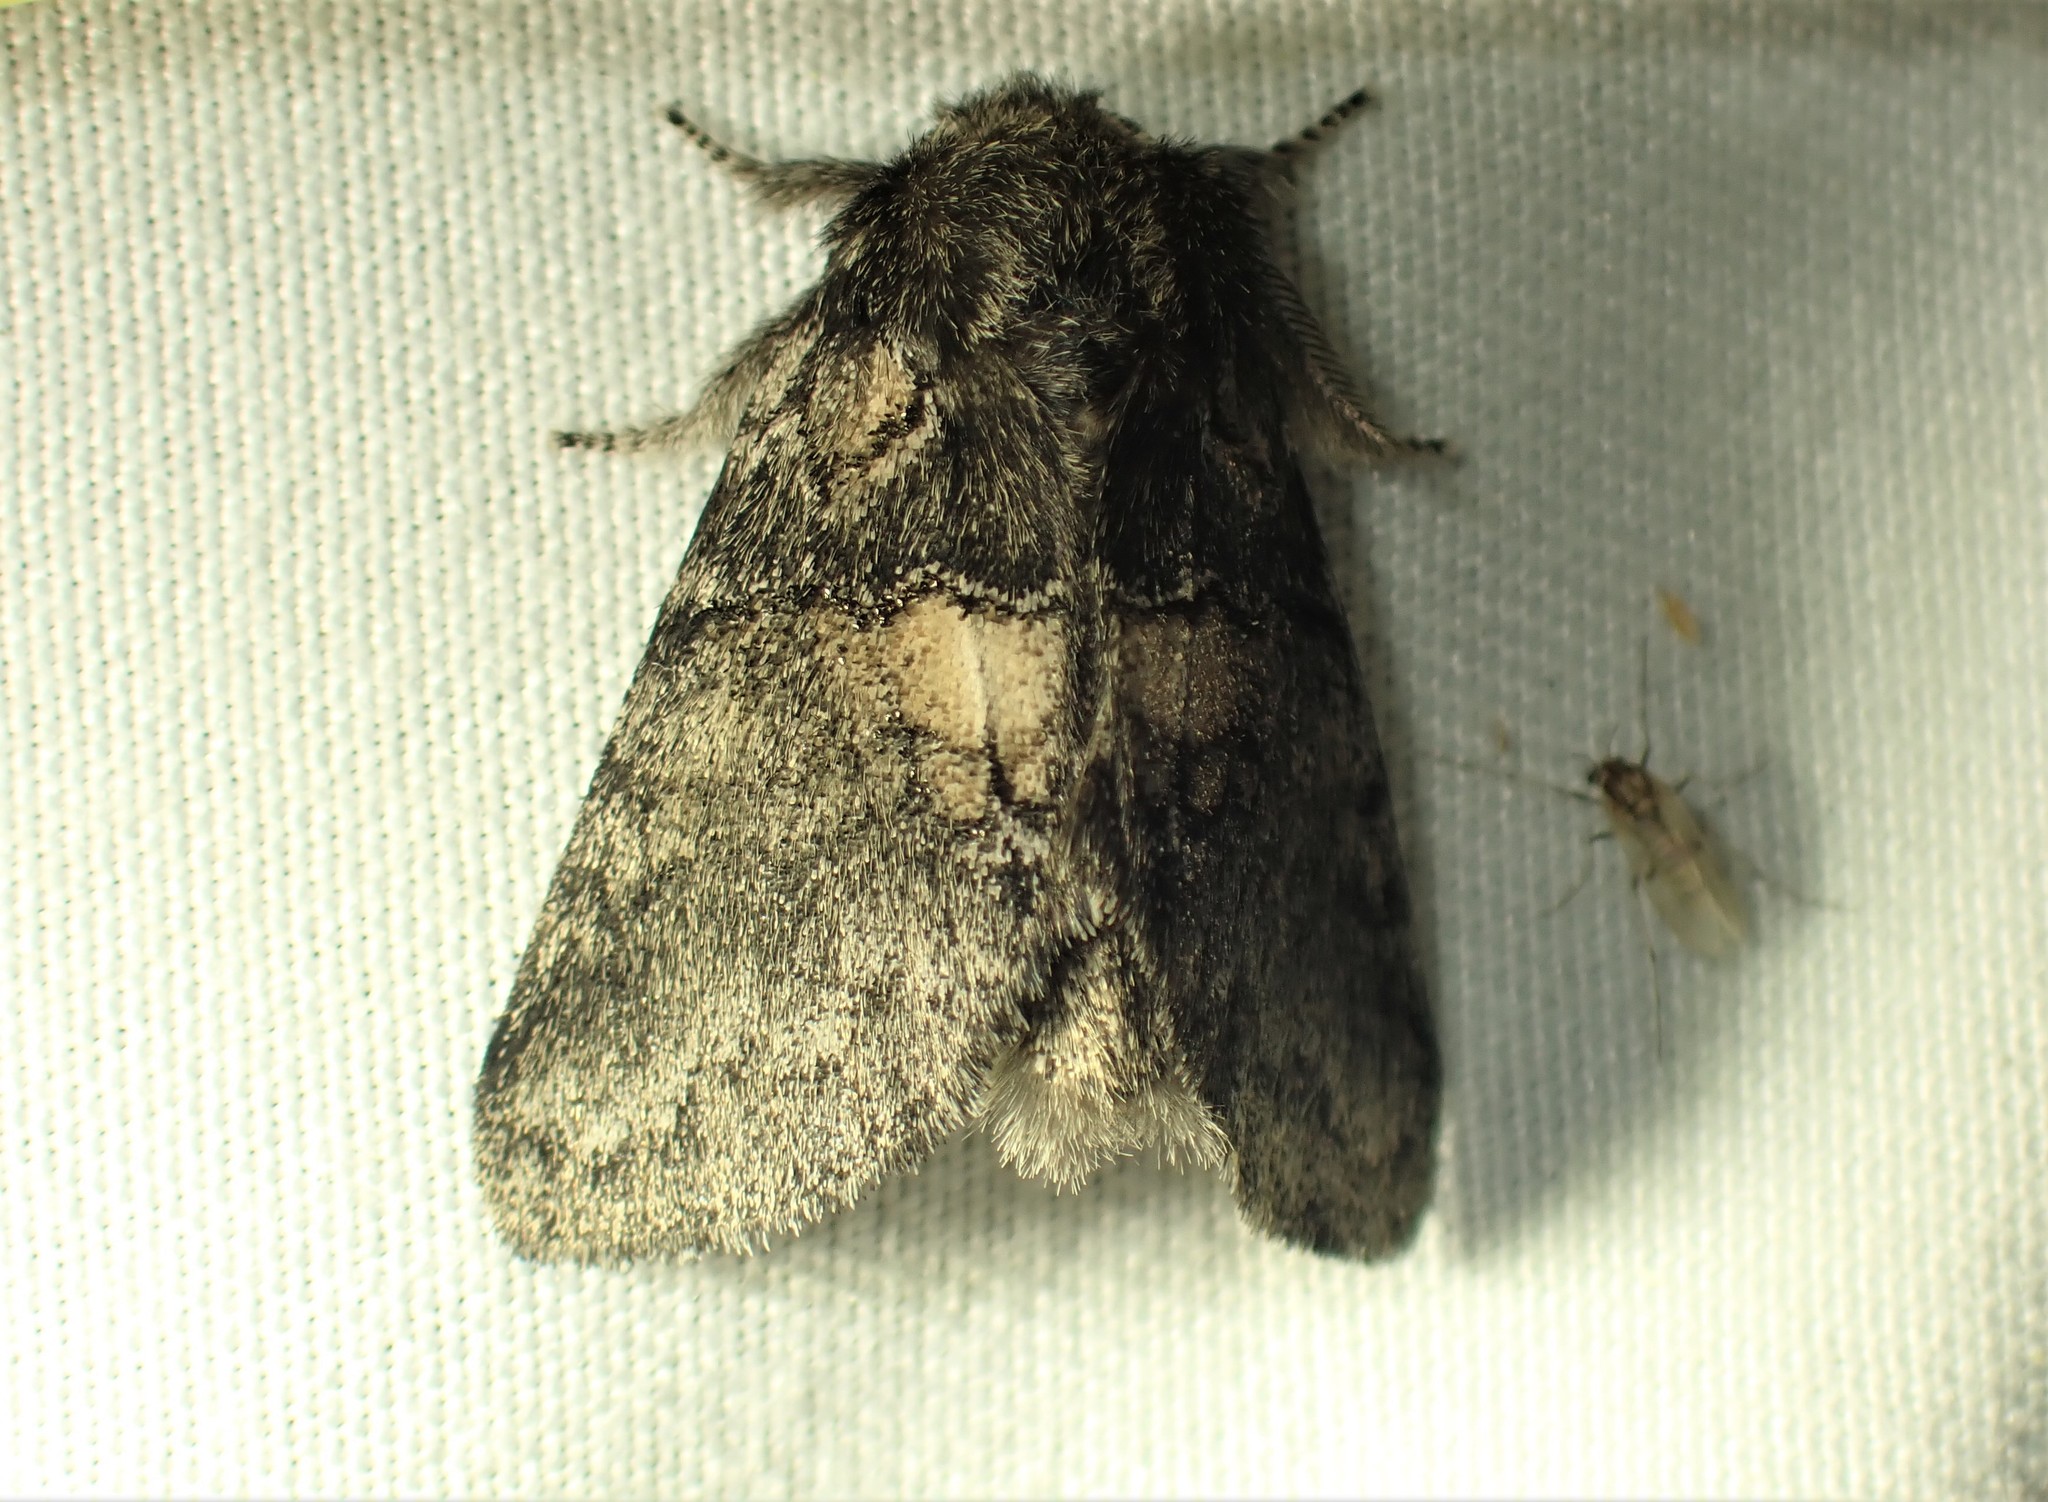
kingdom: Animalia
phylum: Arthropoda
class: Insecta
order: Lepidoptera
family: Notodontidae
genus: Gluphisia
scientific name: Gluphisia septentrionis
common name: Common gluphisia
